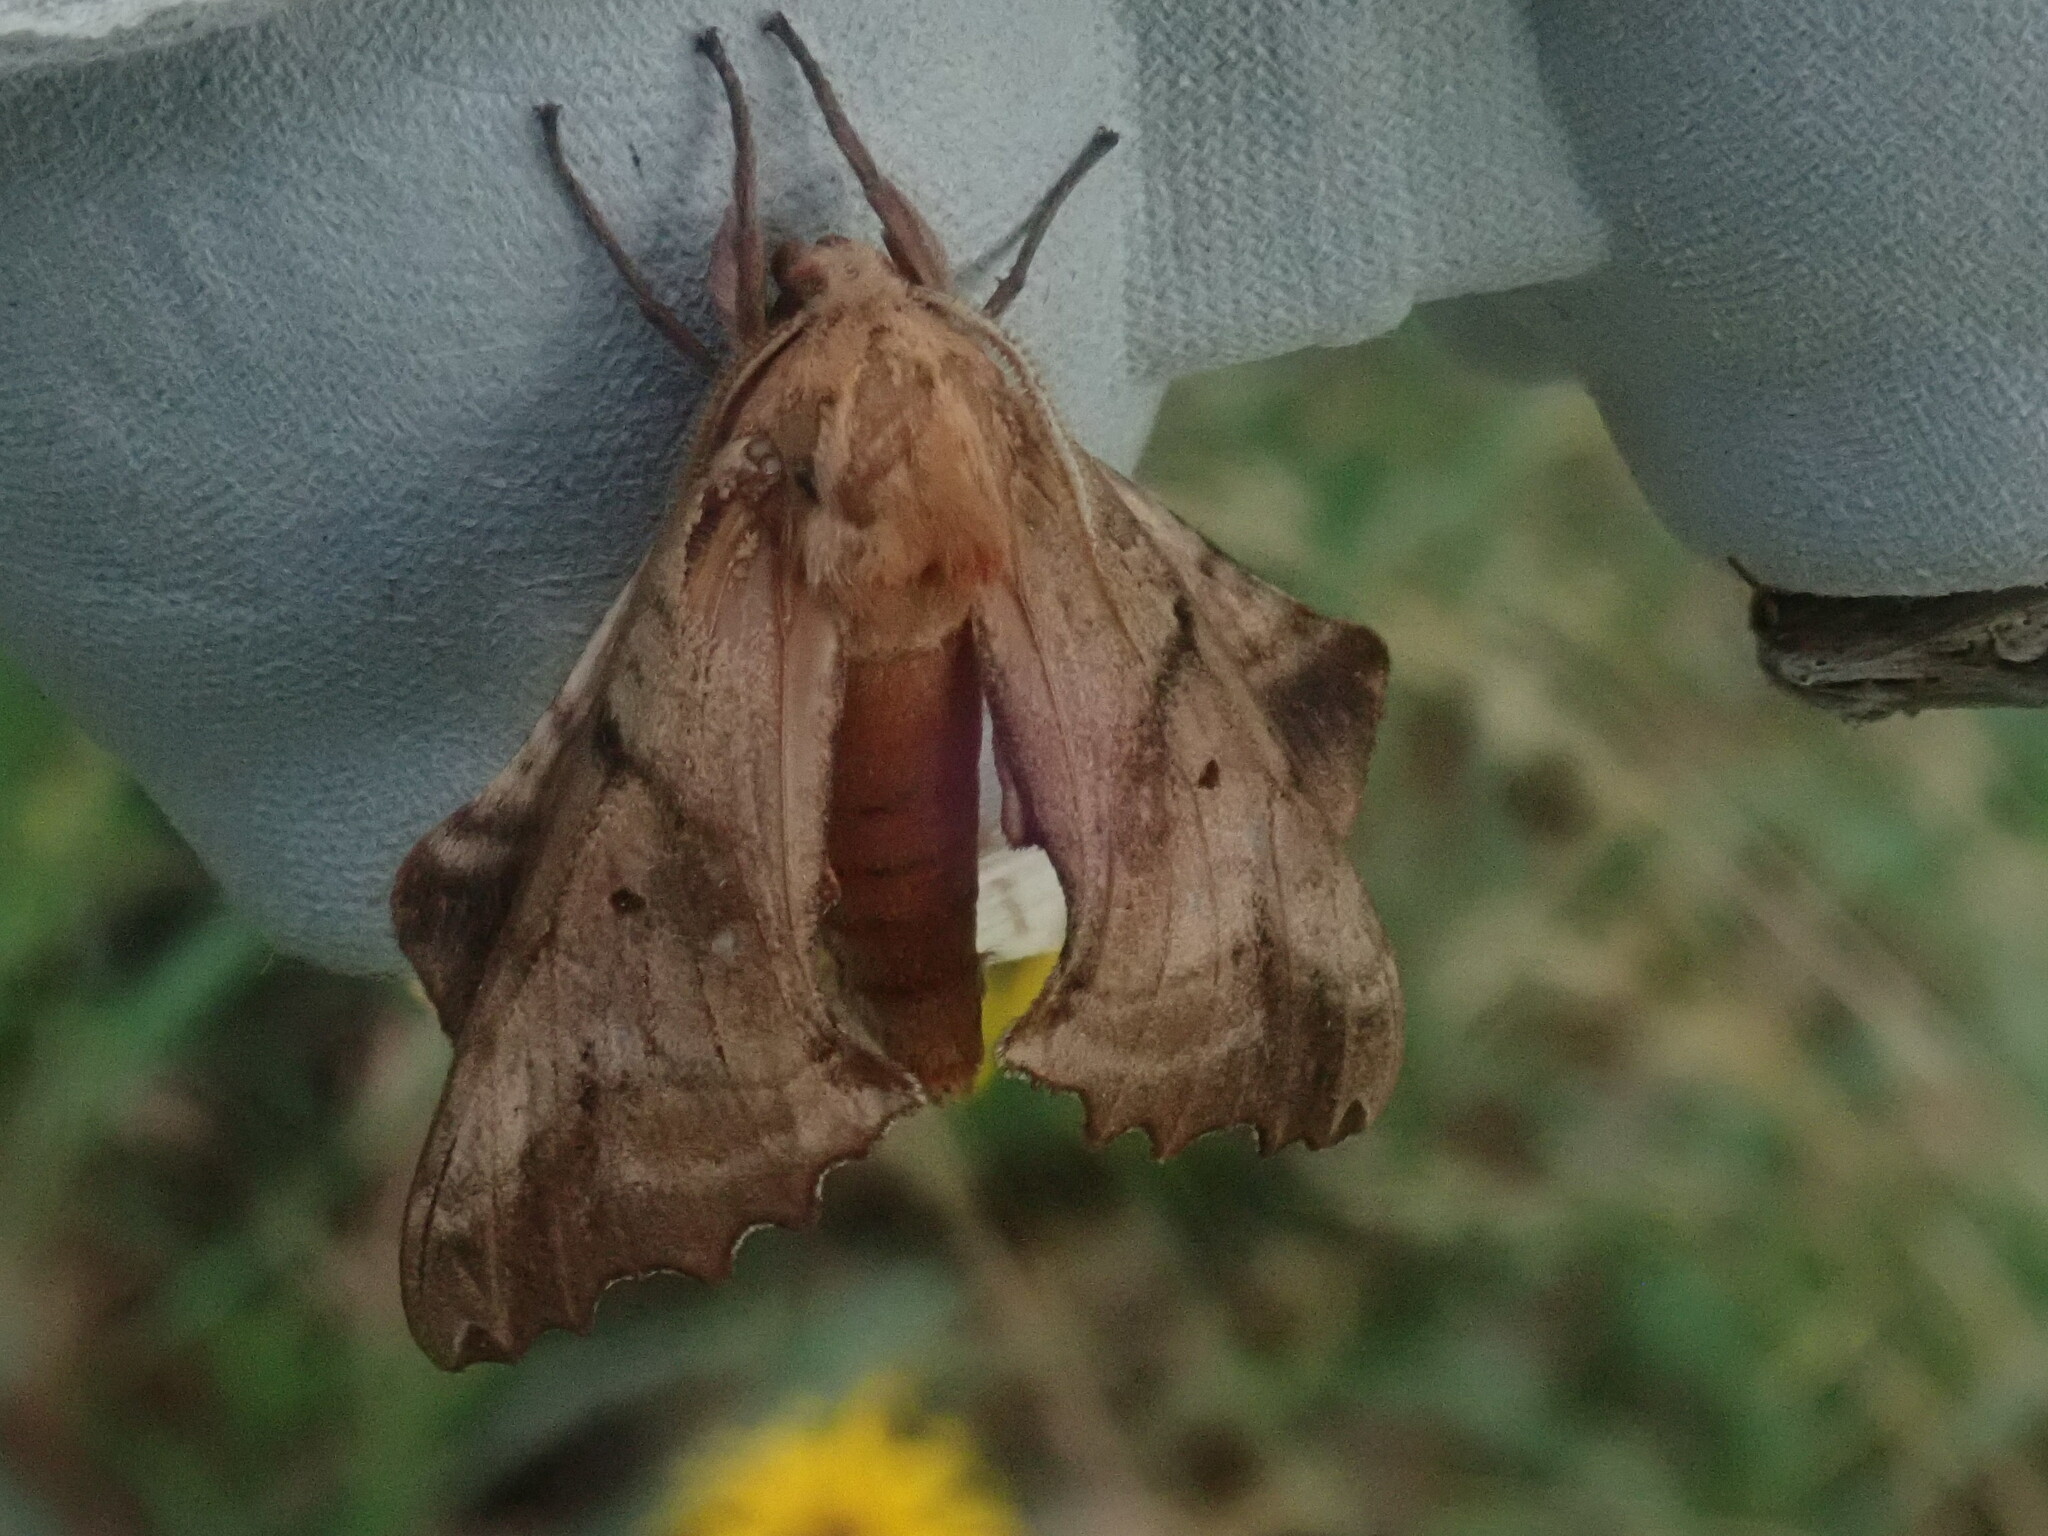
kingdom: Animalia
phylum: Arthropoda
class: Insecta
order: Lepidoptera
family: Sphingidae
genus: Paonias
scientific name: Paonias excaecata
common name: Blind-eyed sphinx
